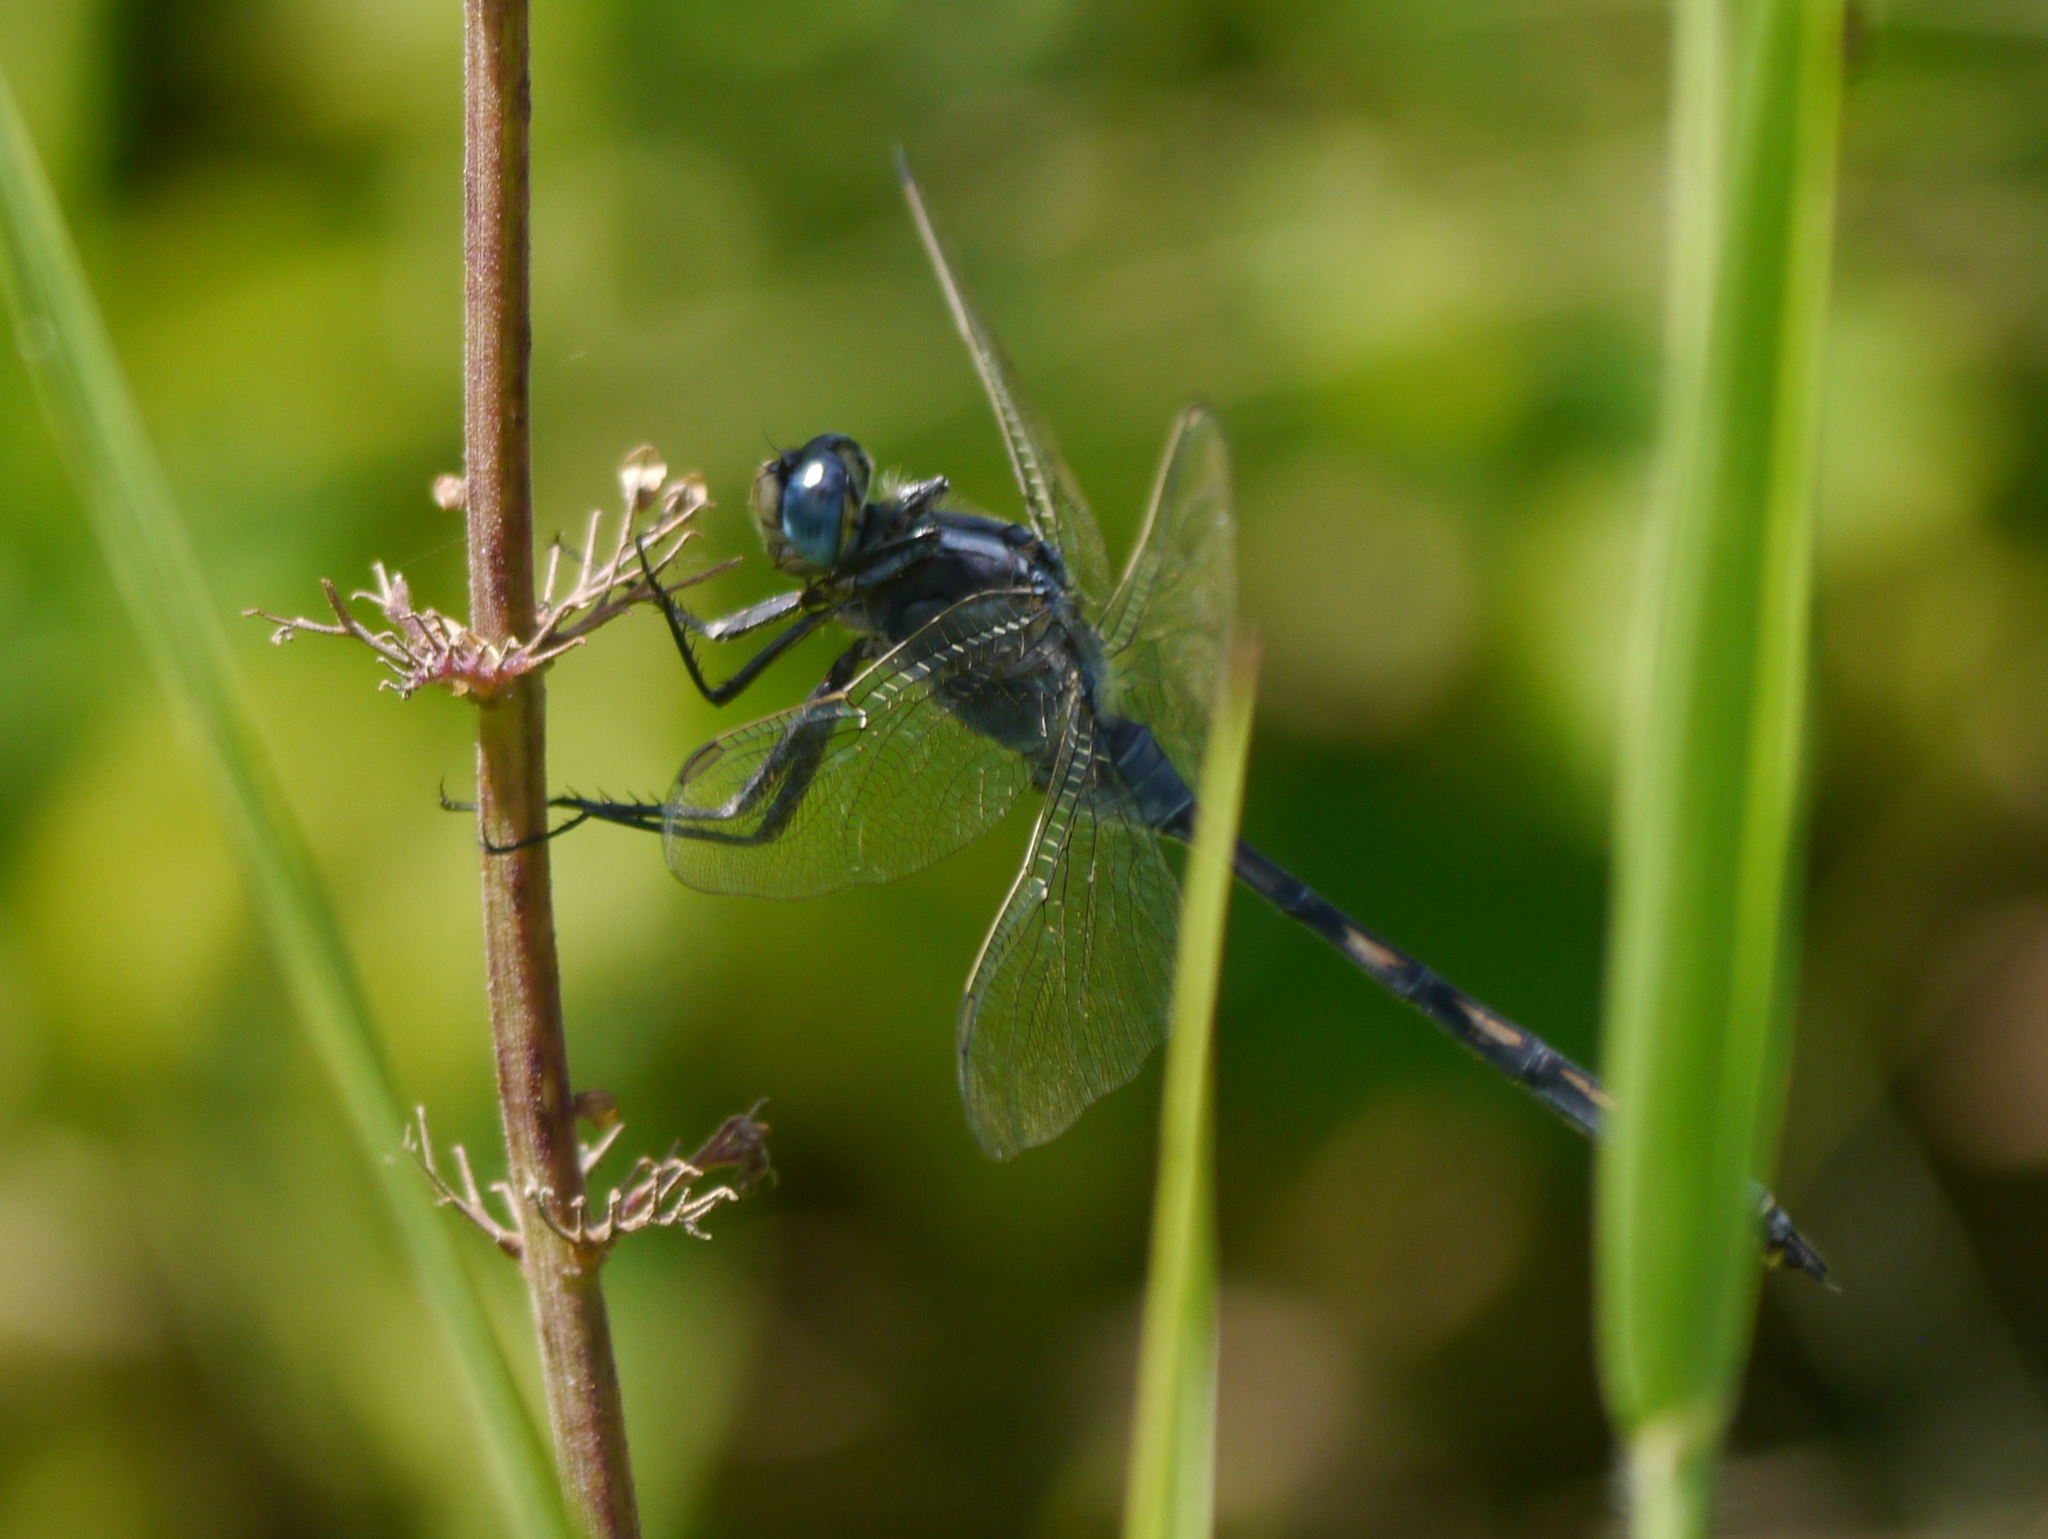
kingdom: Animalia
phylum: Arthropoda
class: Insecta
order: Odonata
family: Libellulidae
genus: Orthetrum
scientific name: Orthetrum trinacria
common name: Long skimmer
